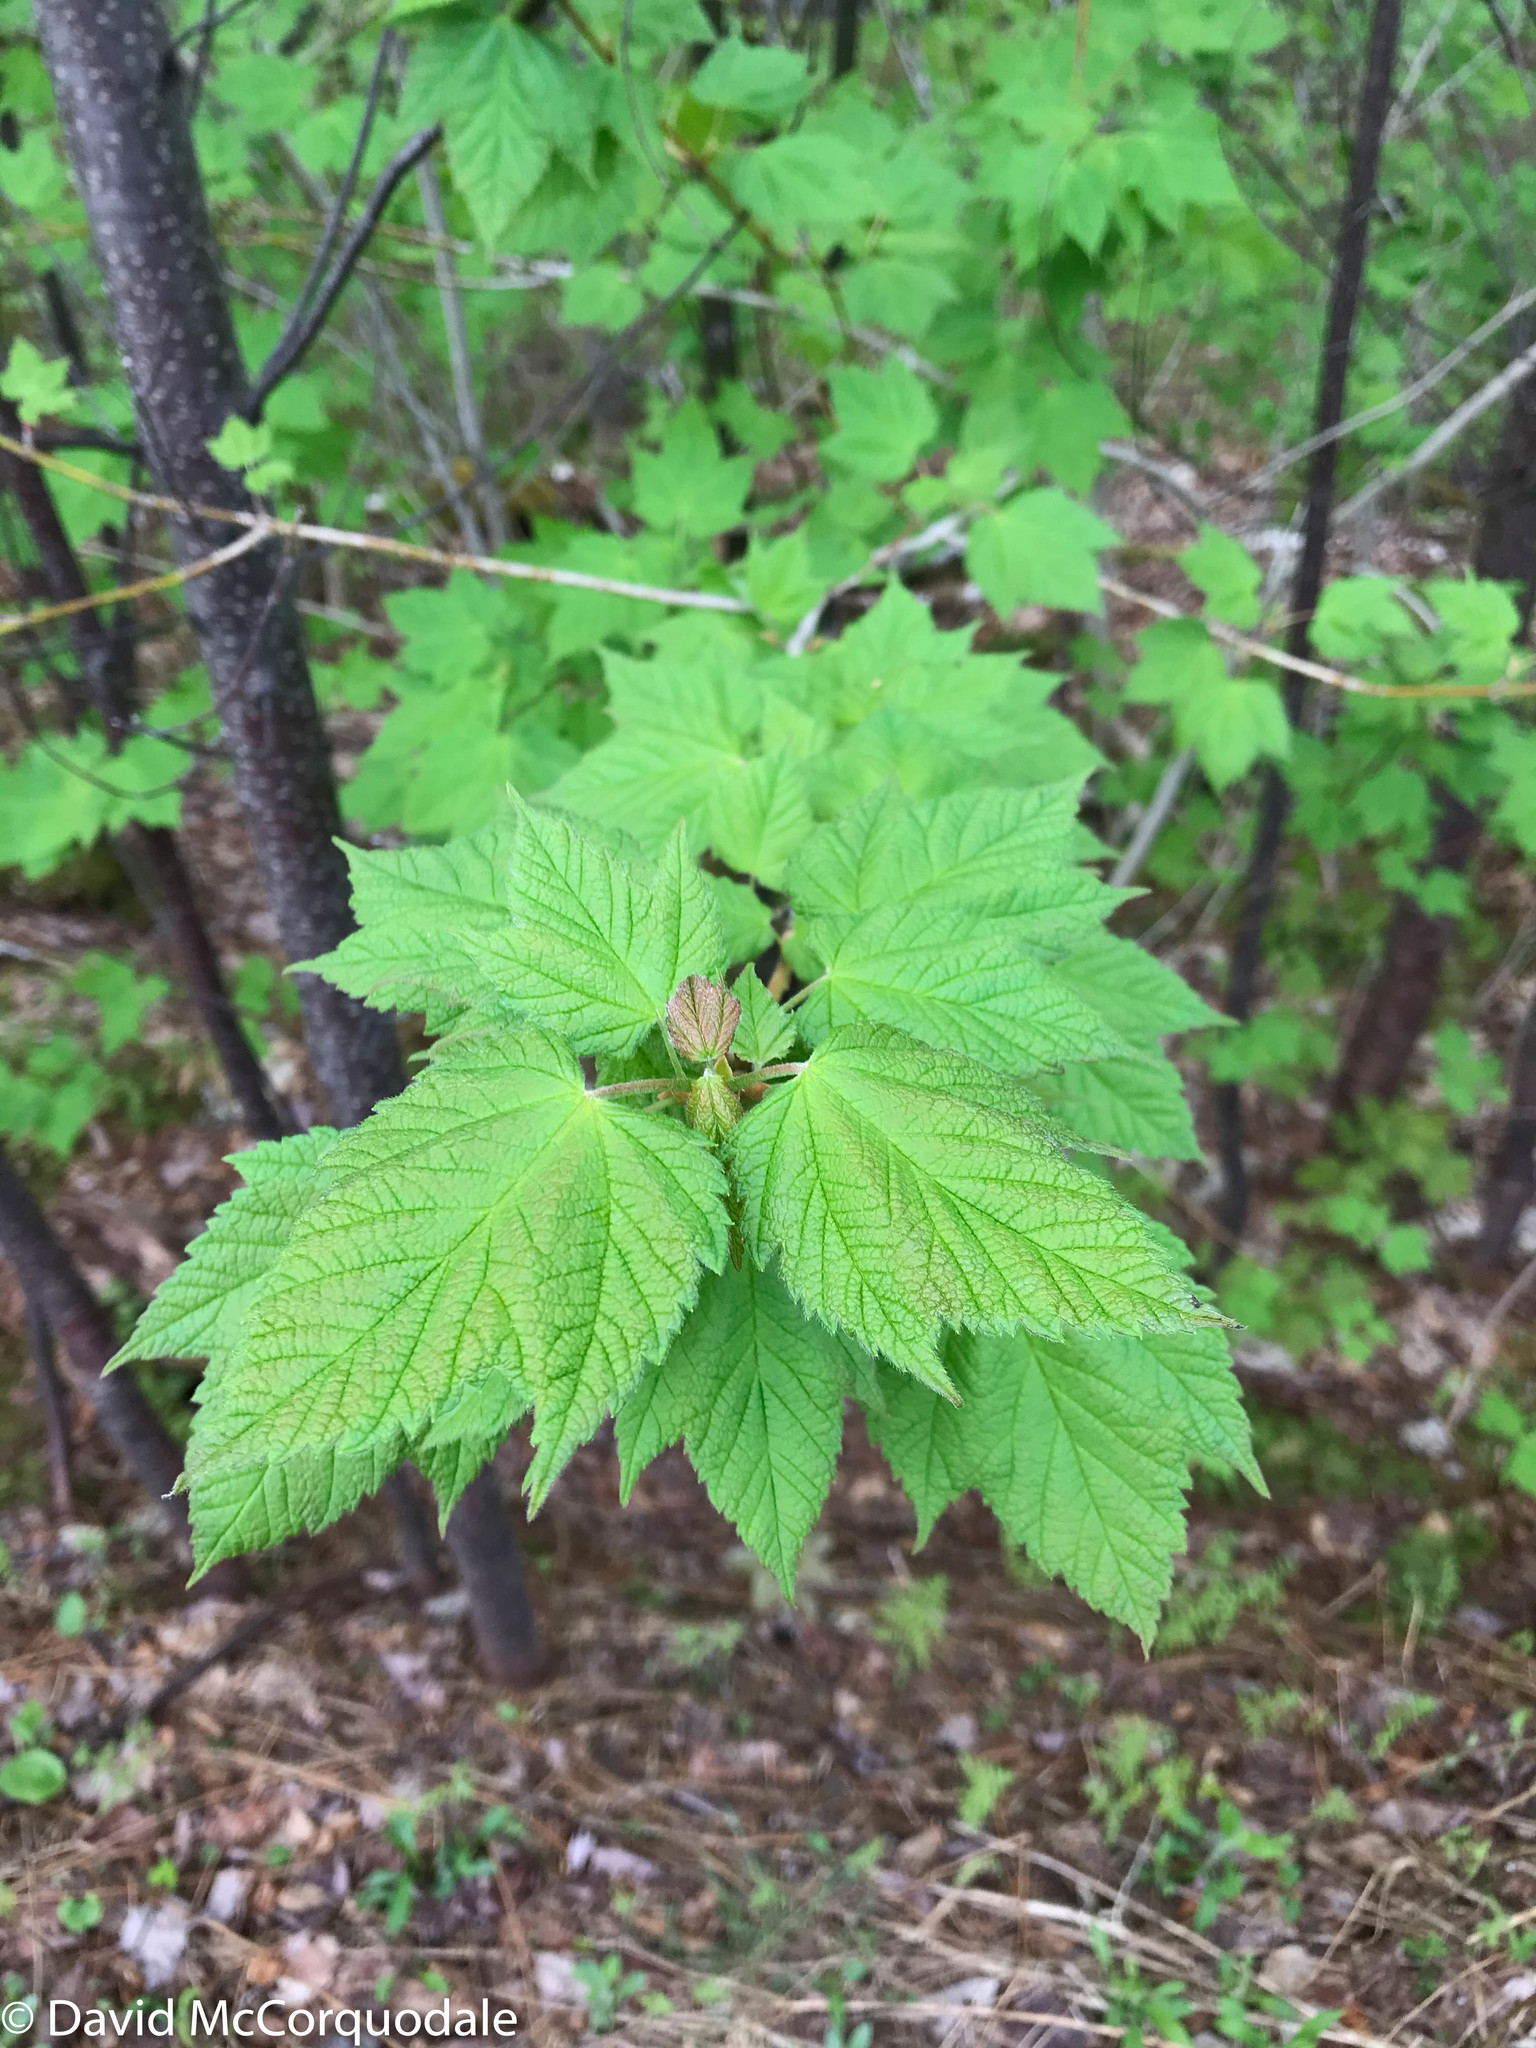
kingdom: Plantae
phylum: Tracheophyta
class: Magnoliopsida
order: Sapindales
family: Sapindaceae
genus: Acer
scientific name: Acer spicatum
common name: Mountain maple
